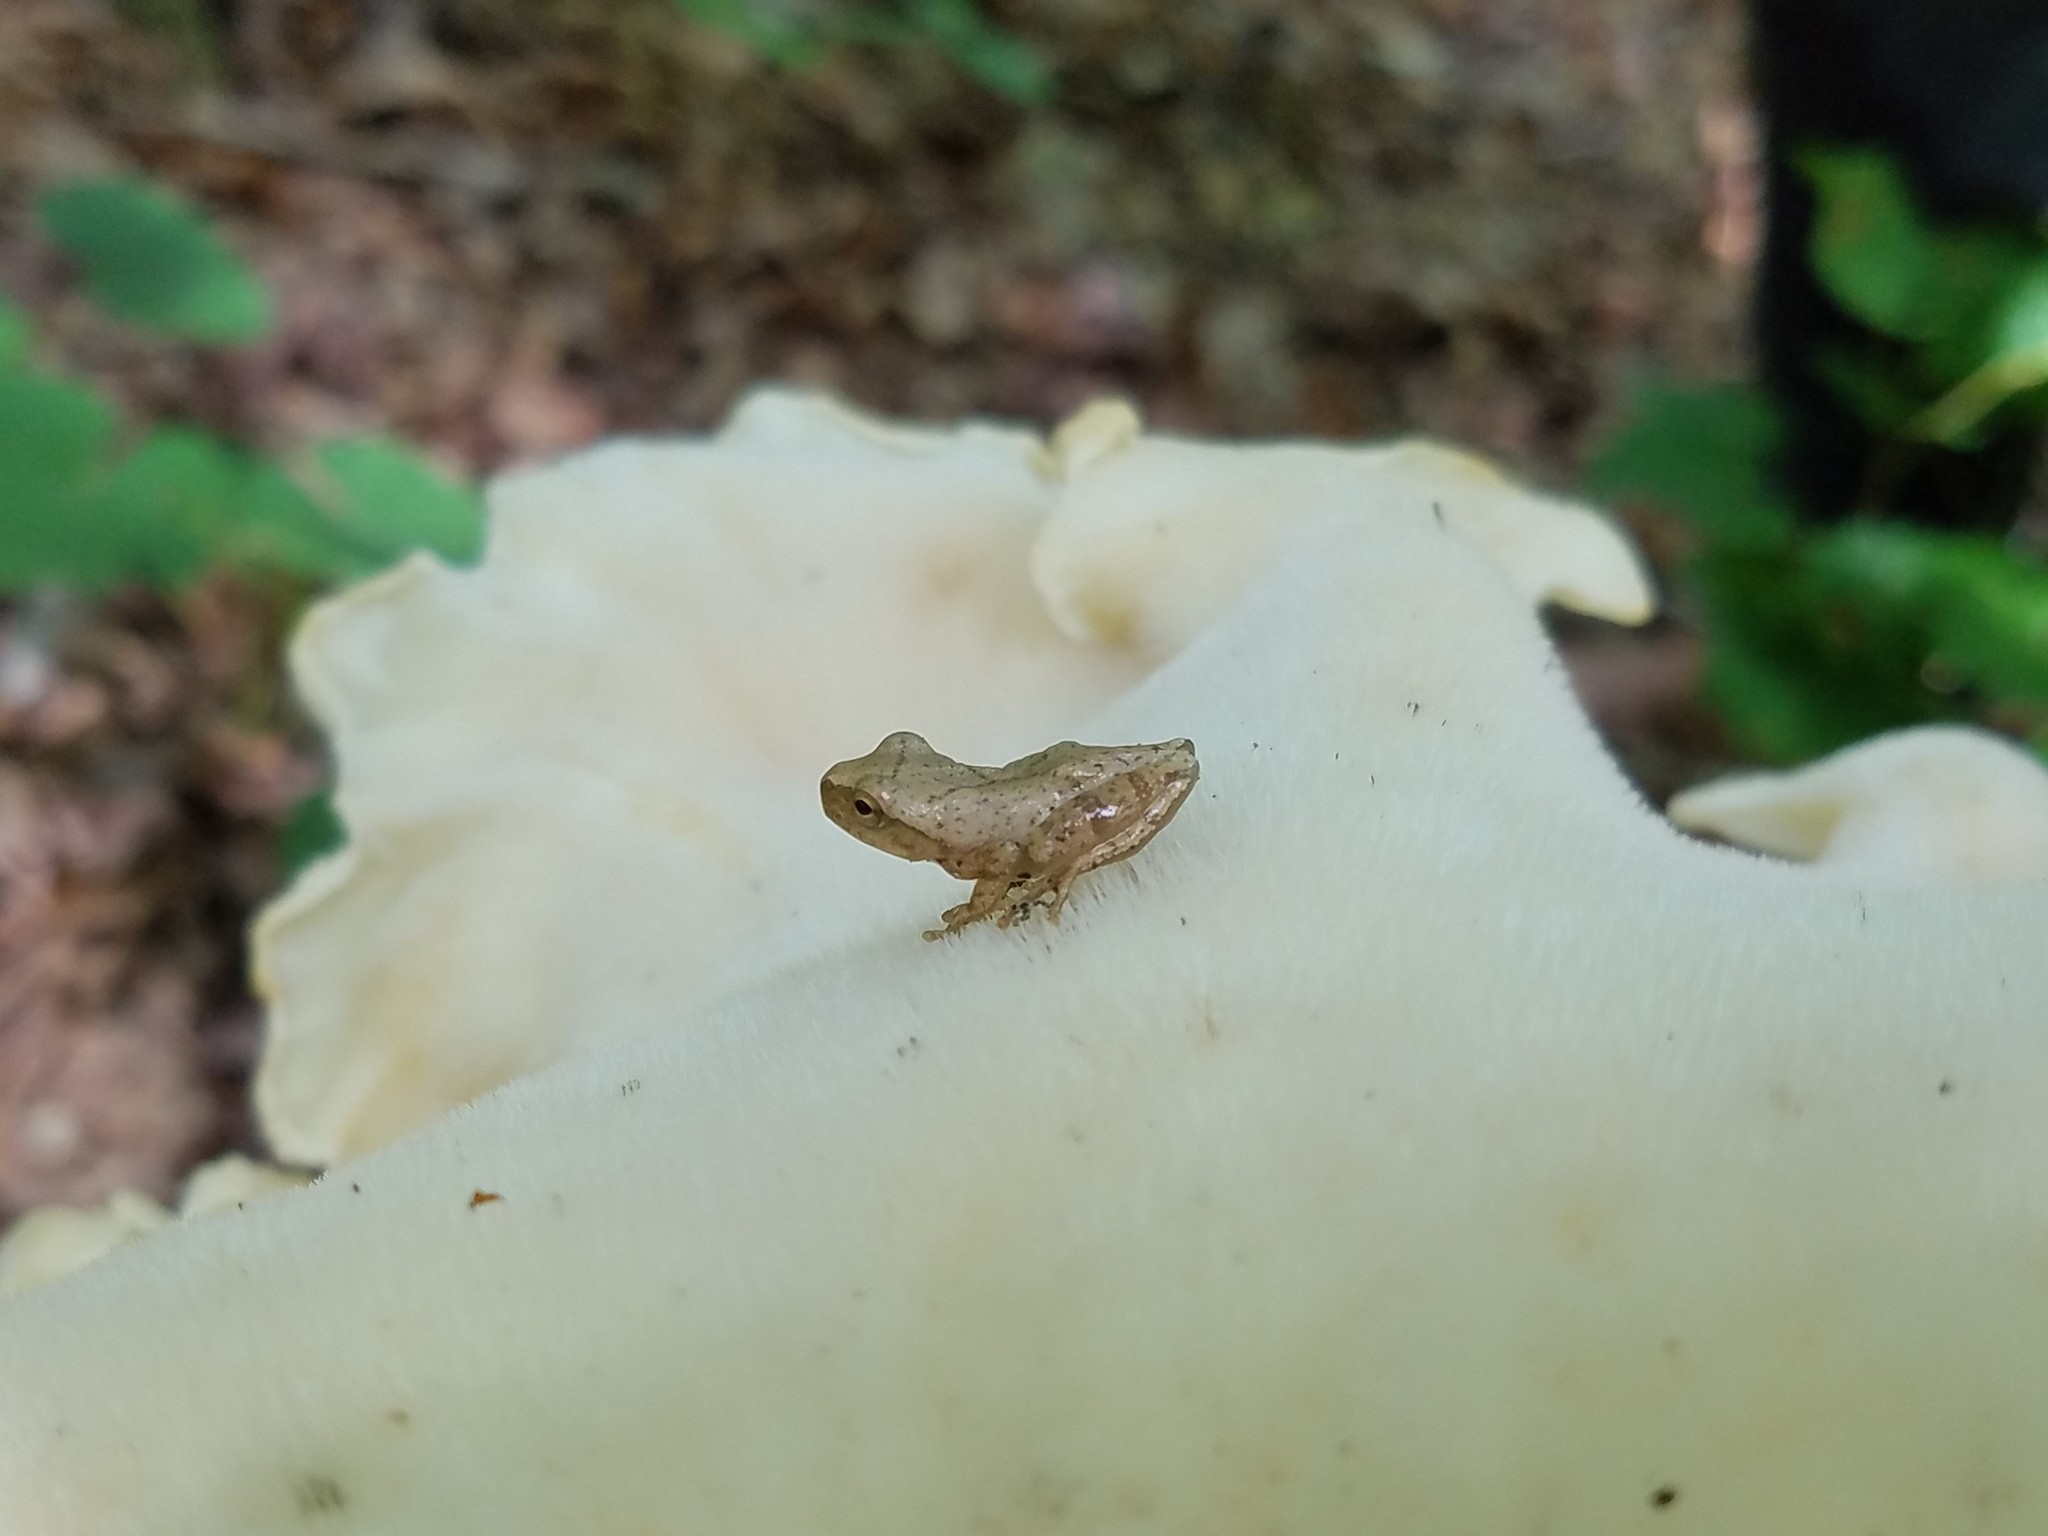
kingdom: Animalia
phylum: Chordata
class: Amphibia
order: Anura
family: Hylidae
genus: Pseudacris
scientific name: Pseudacris crucifer
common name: Spring peeper
